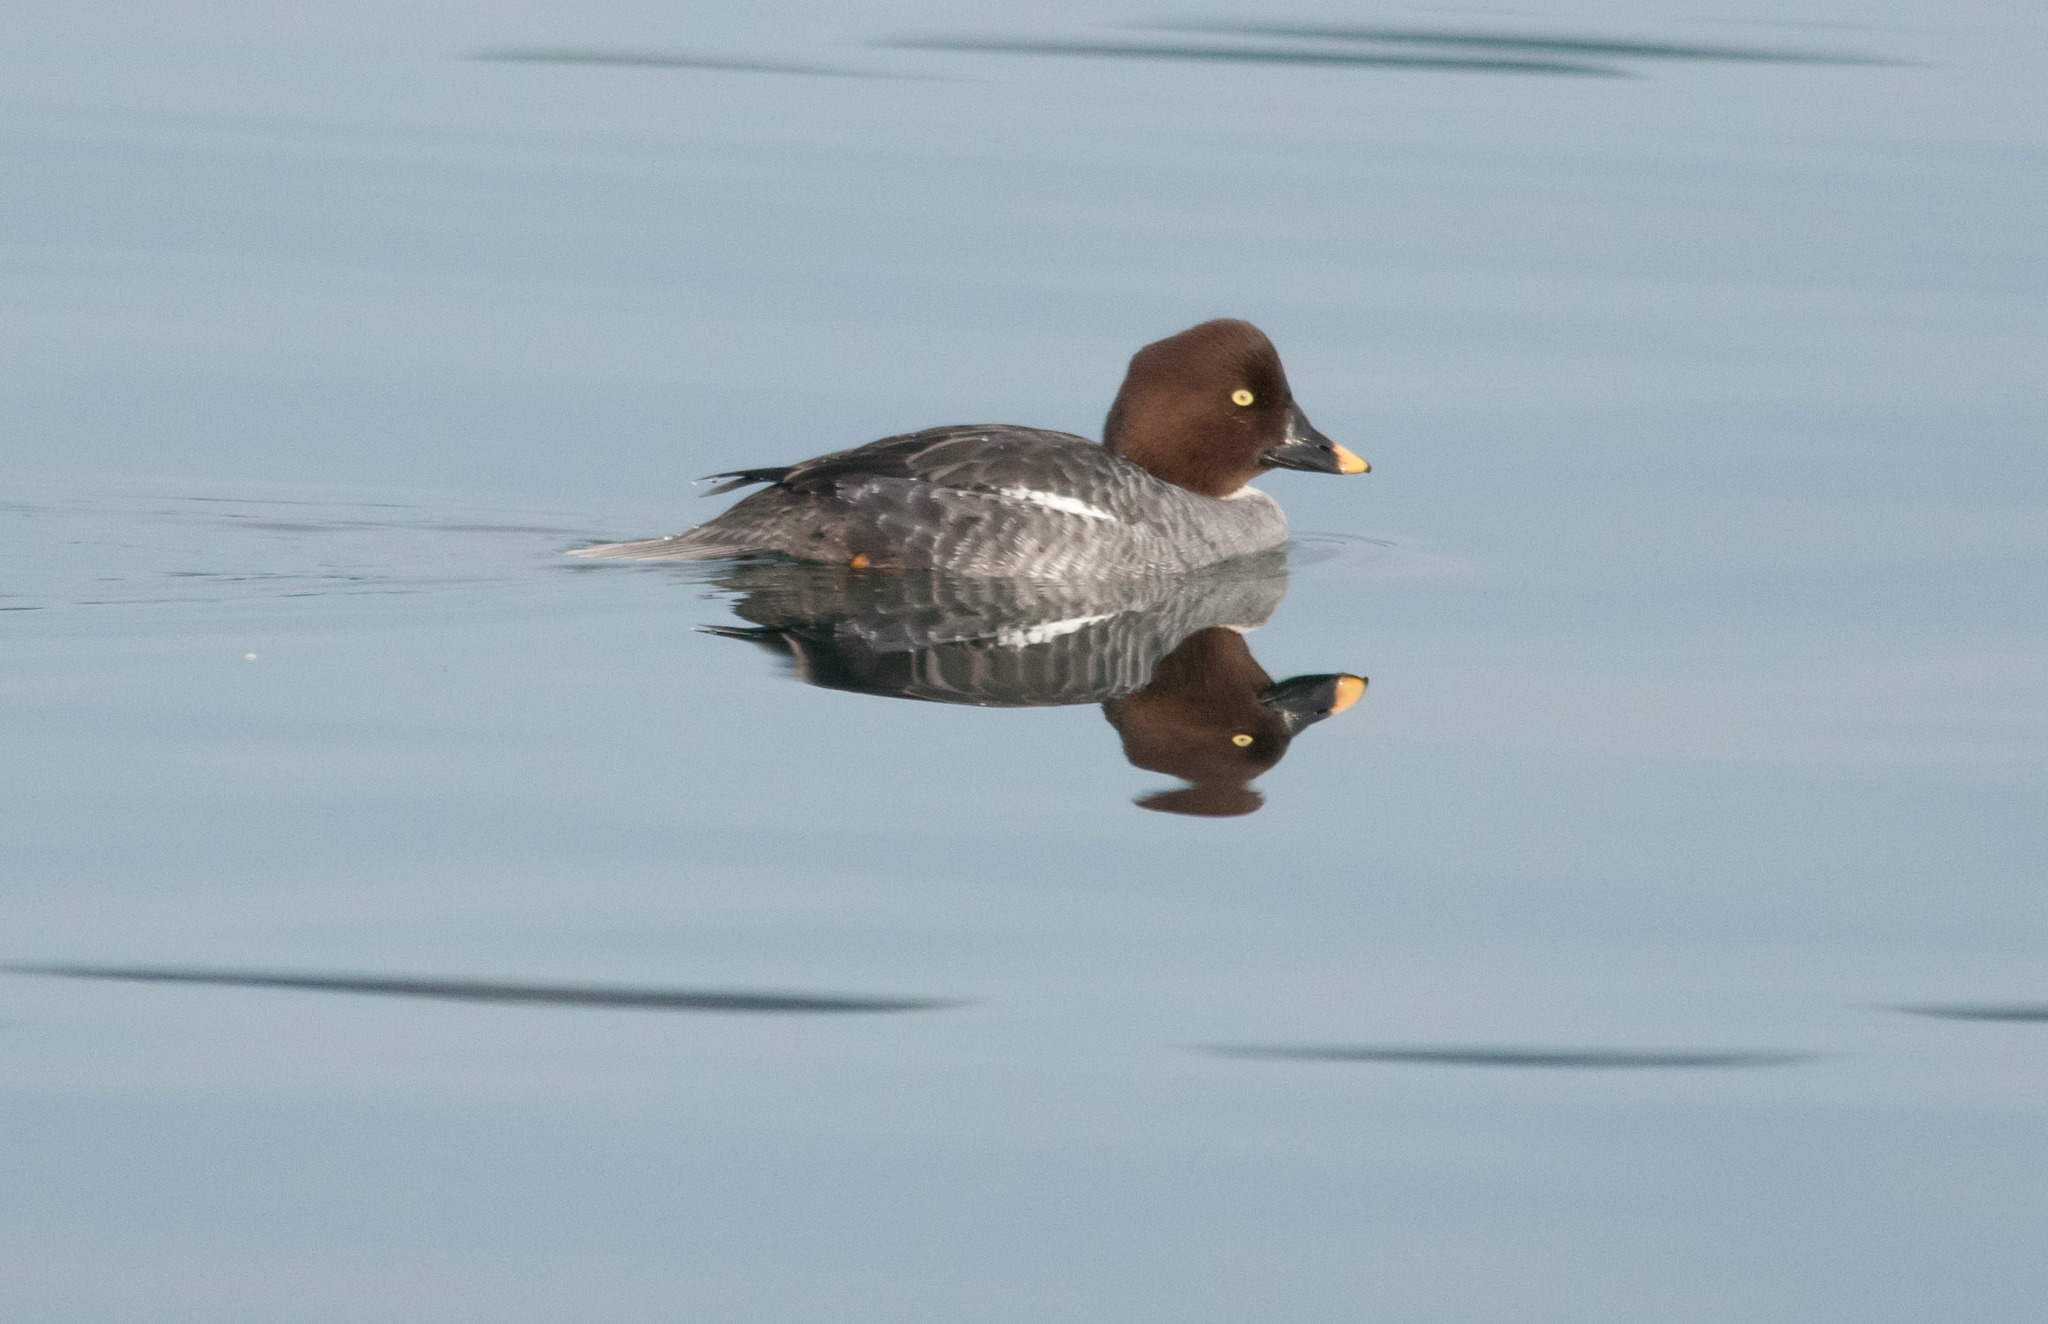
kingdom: Animalia
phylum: Chordata
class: Aves
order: Anseriformes
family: Anatidae
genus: Bucephala
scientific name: Bucephala clangula
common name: Common goldeneye
